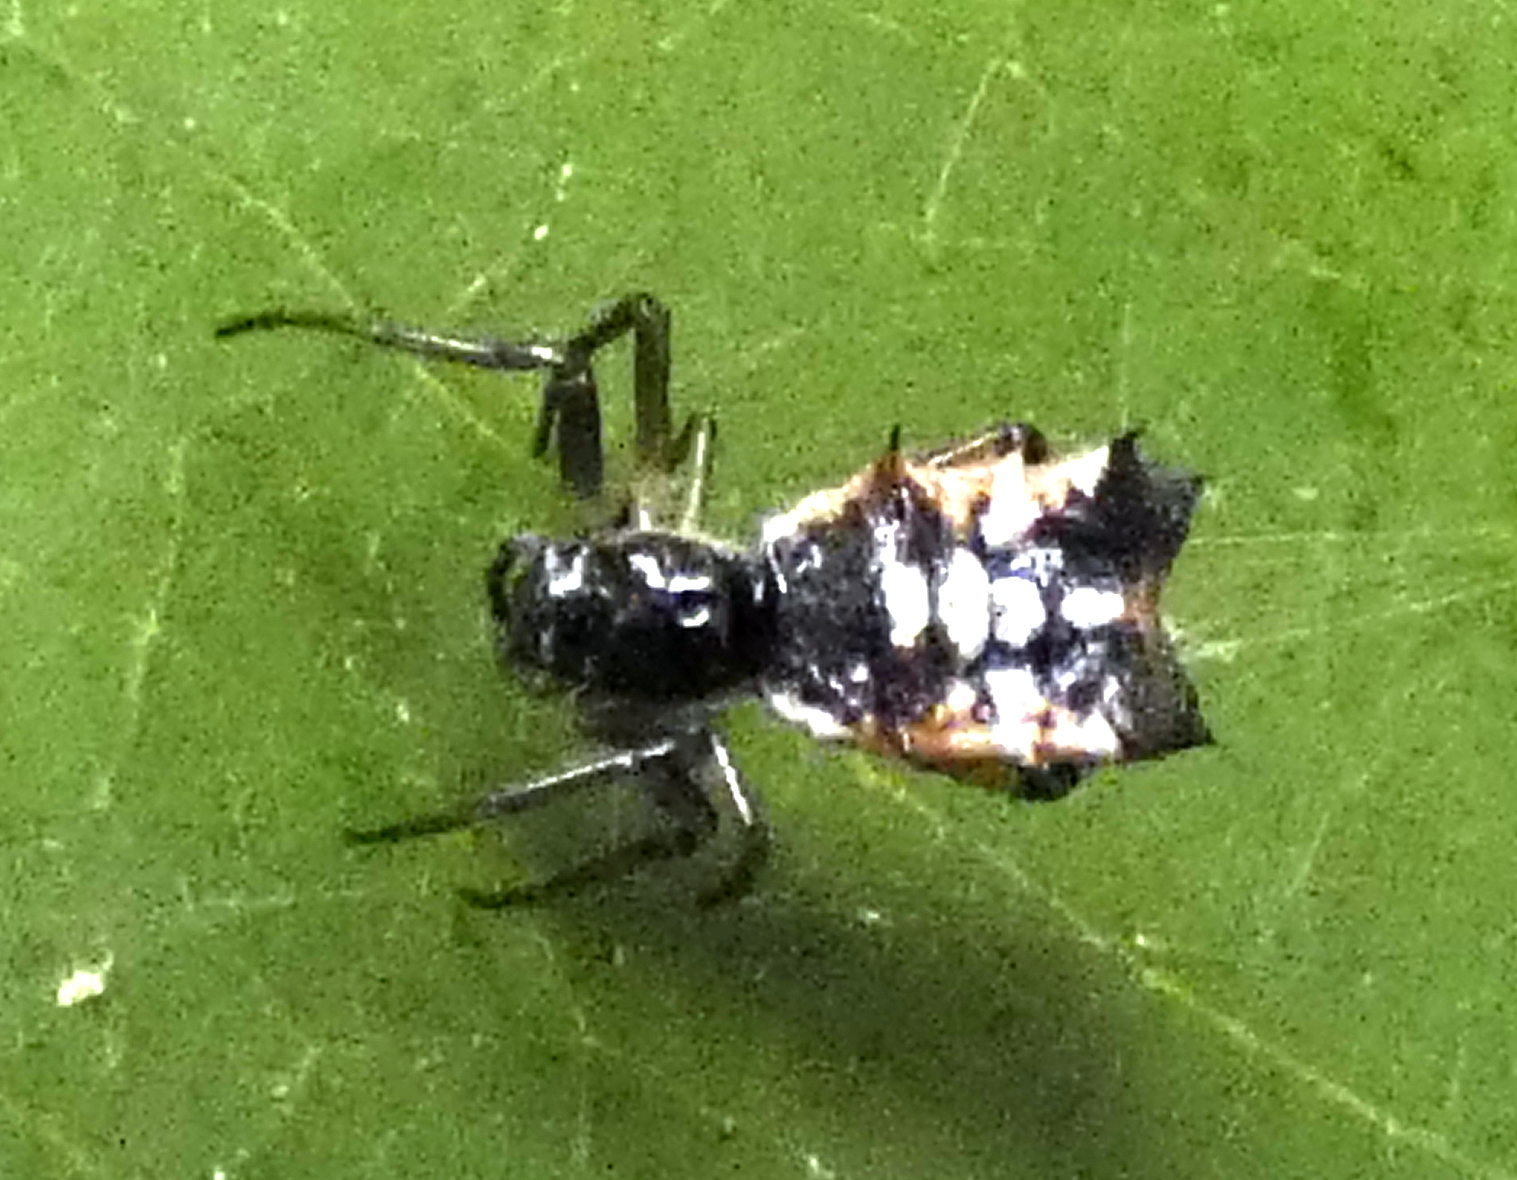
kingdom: Animalia
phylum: Arthropoda
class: Arachnida
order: Araneae
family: Araneidae
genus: Micrathena
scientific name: Micrathena picta
